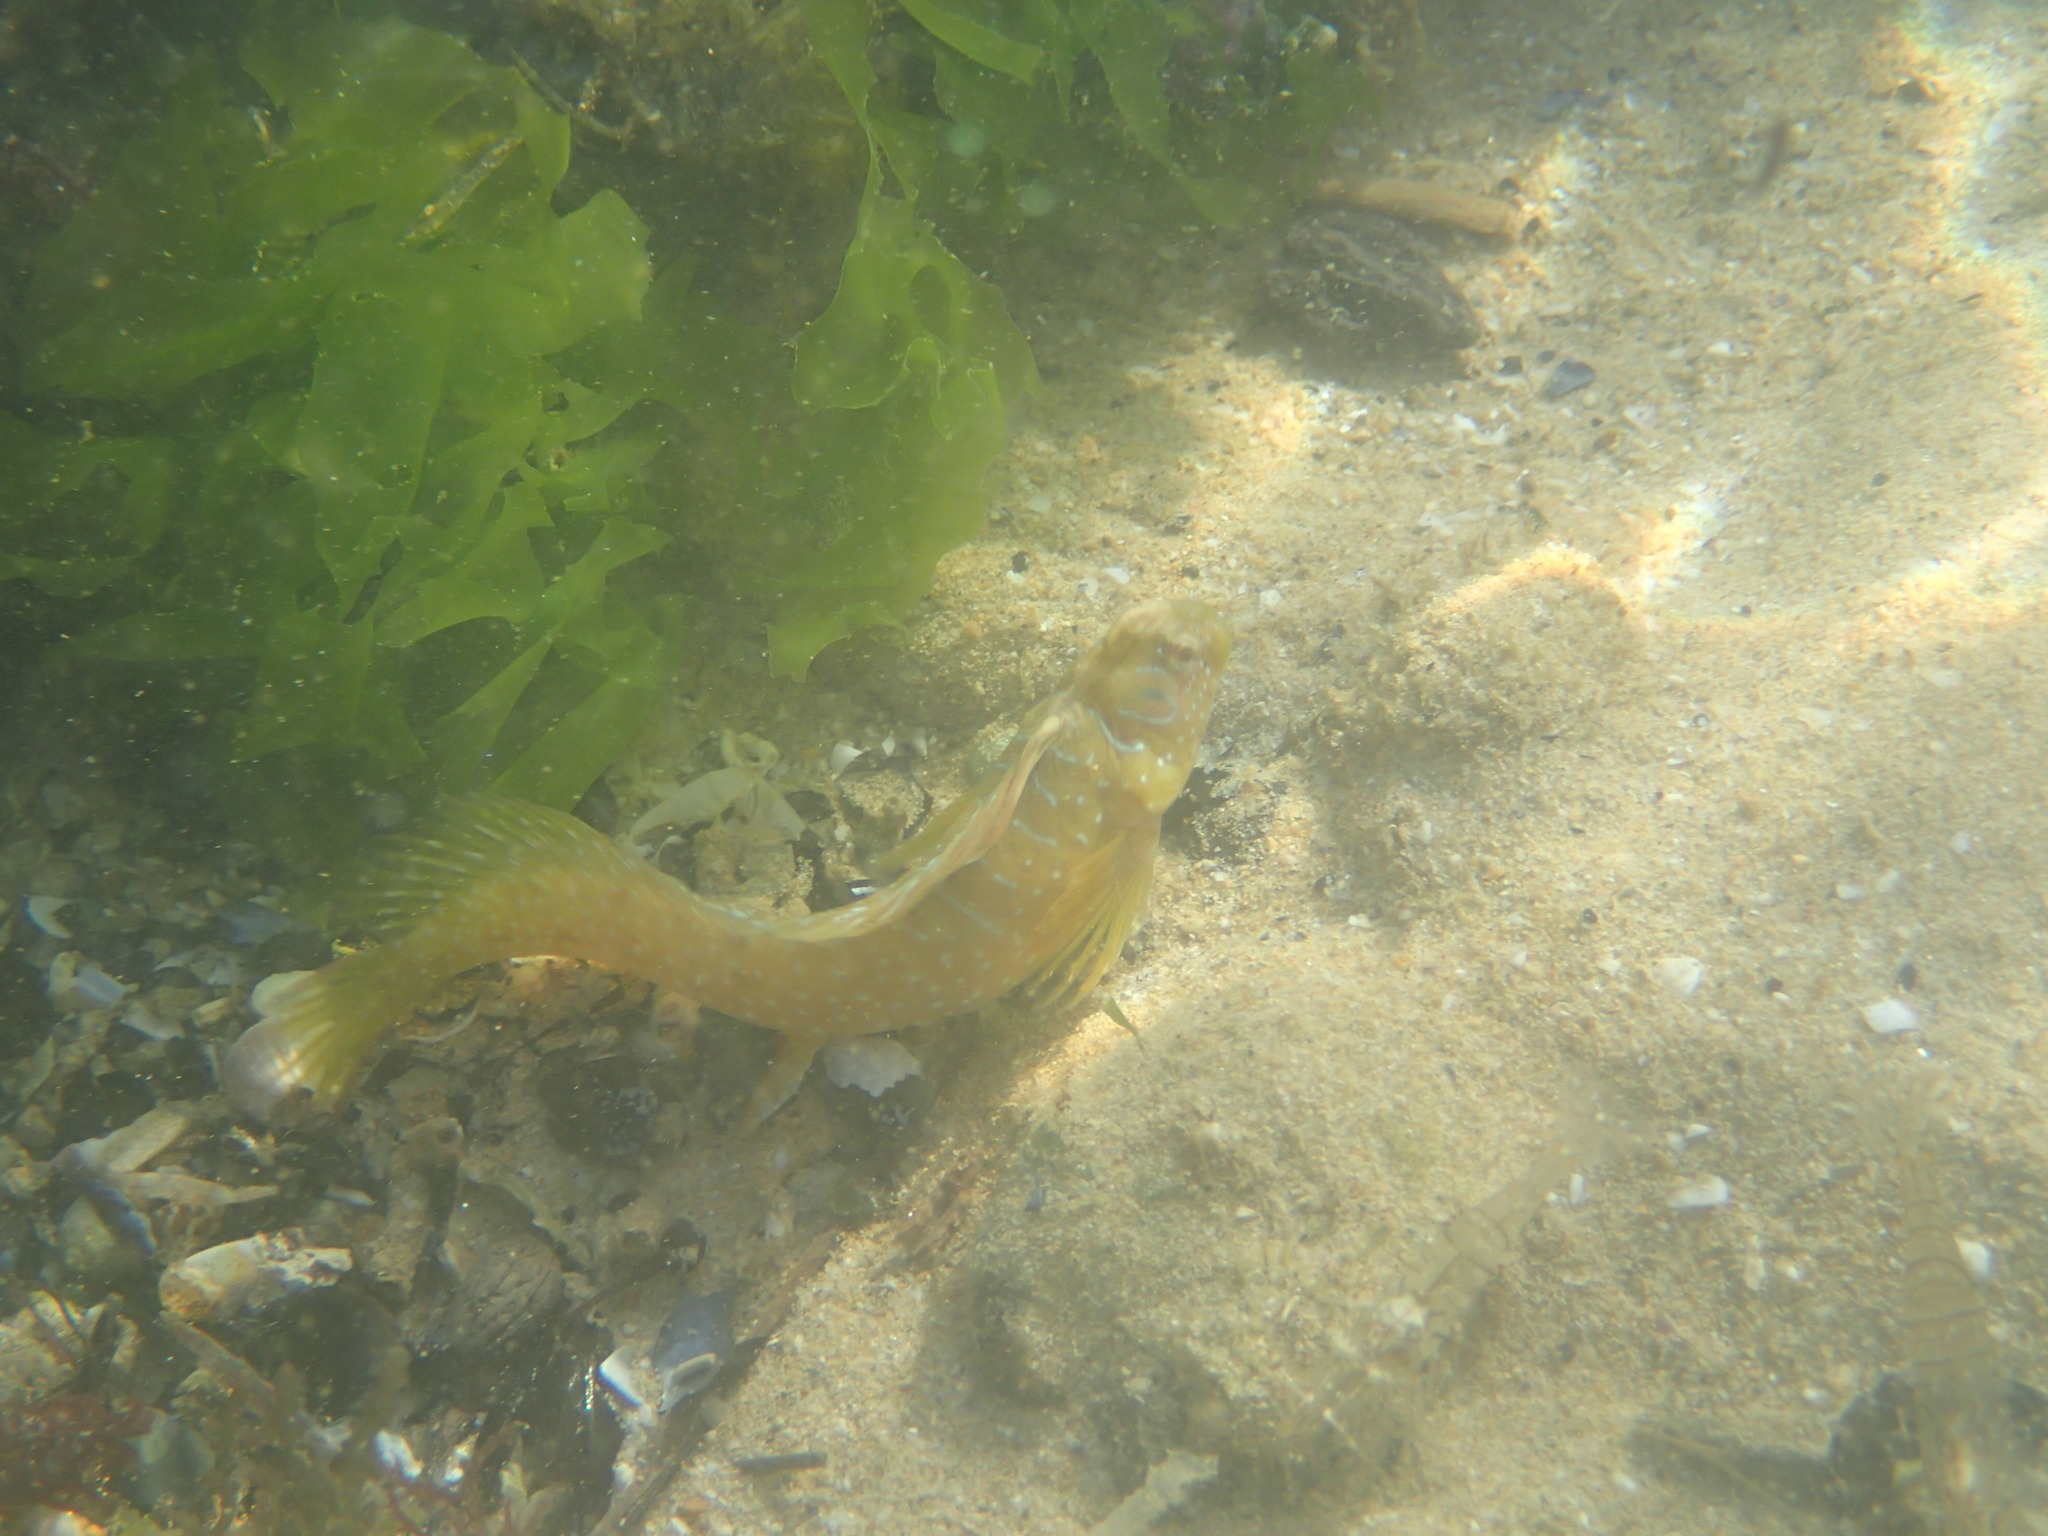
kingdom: Animalia
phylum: Chordata
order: Perciformes
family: Blenniidae
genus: Salaria
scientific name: Salaria pavo
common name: Peacock blenny
